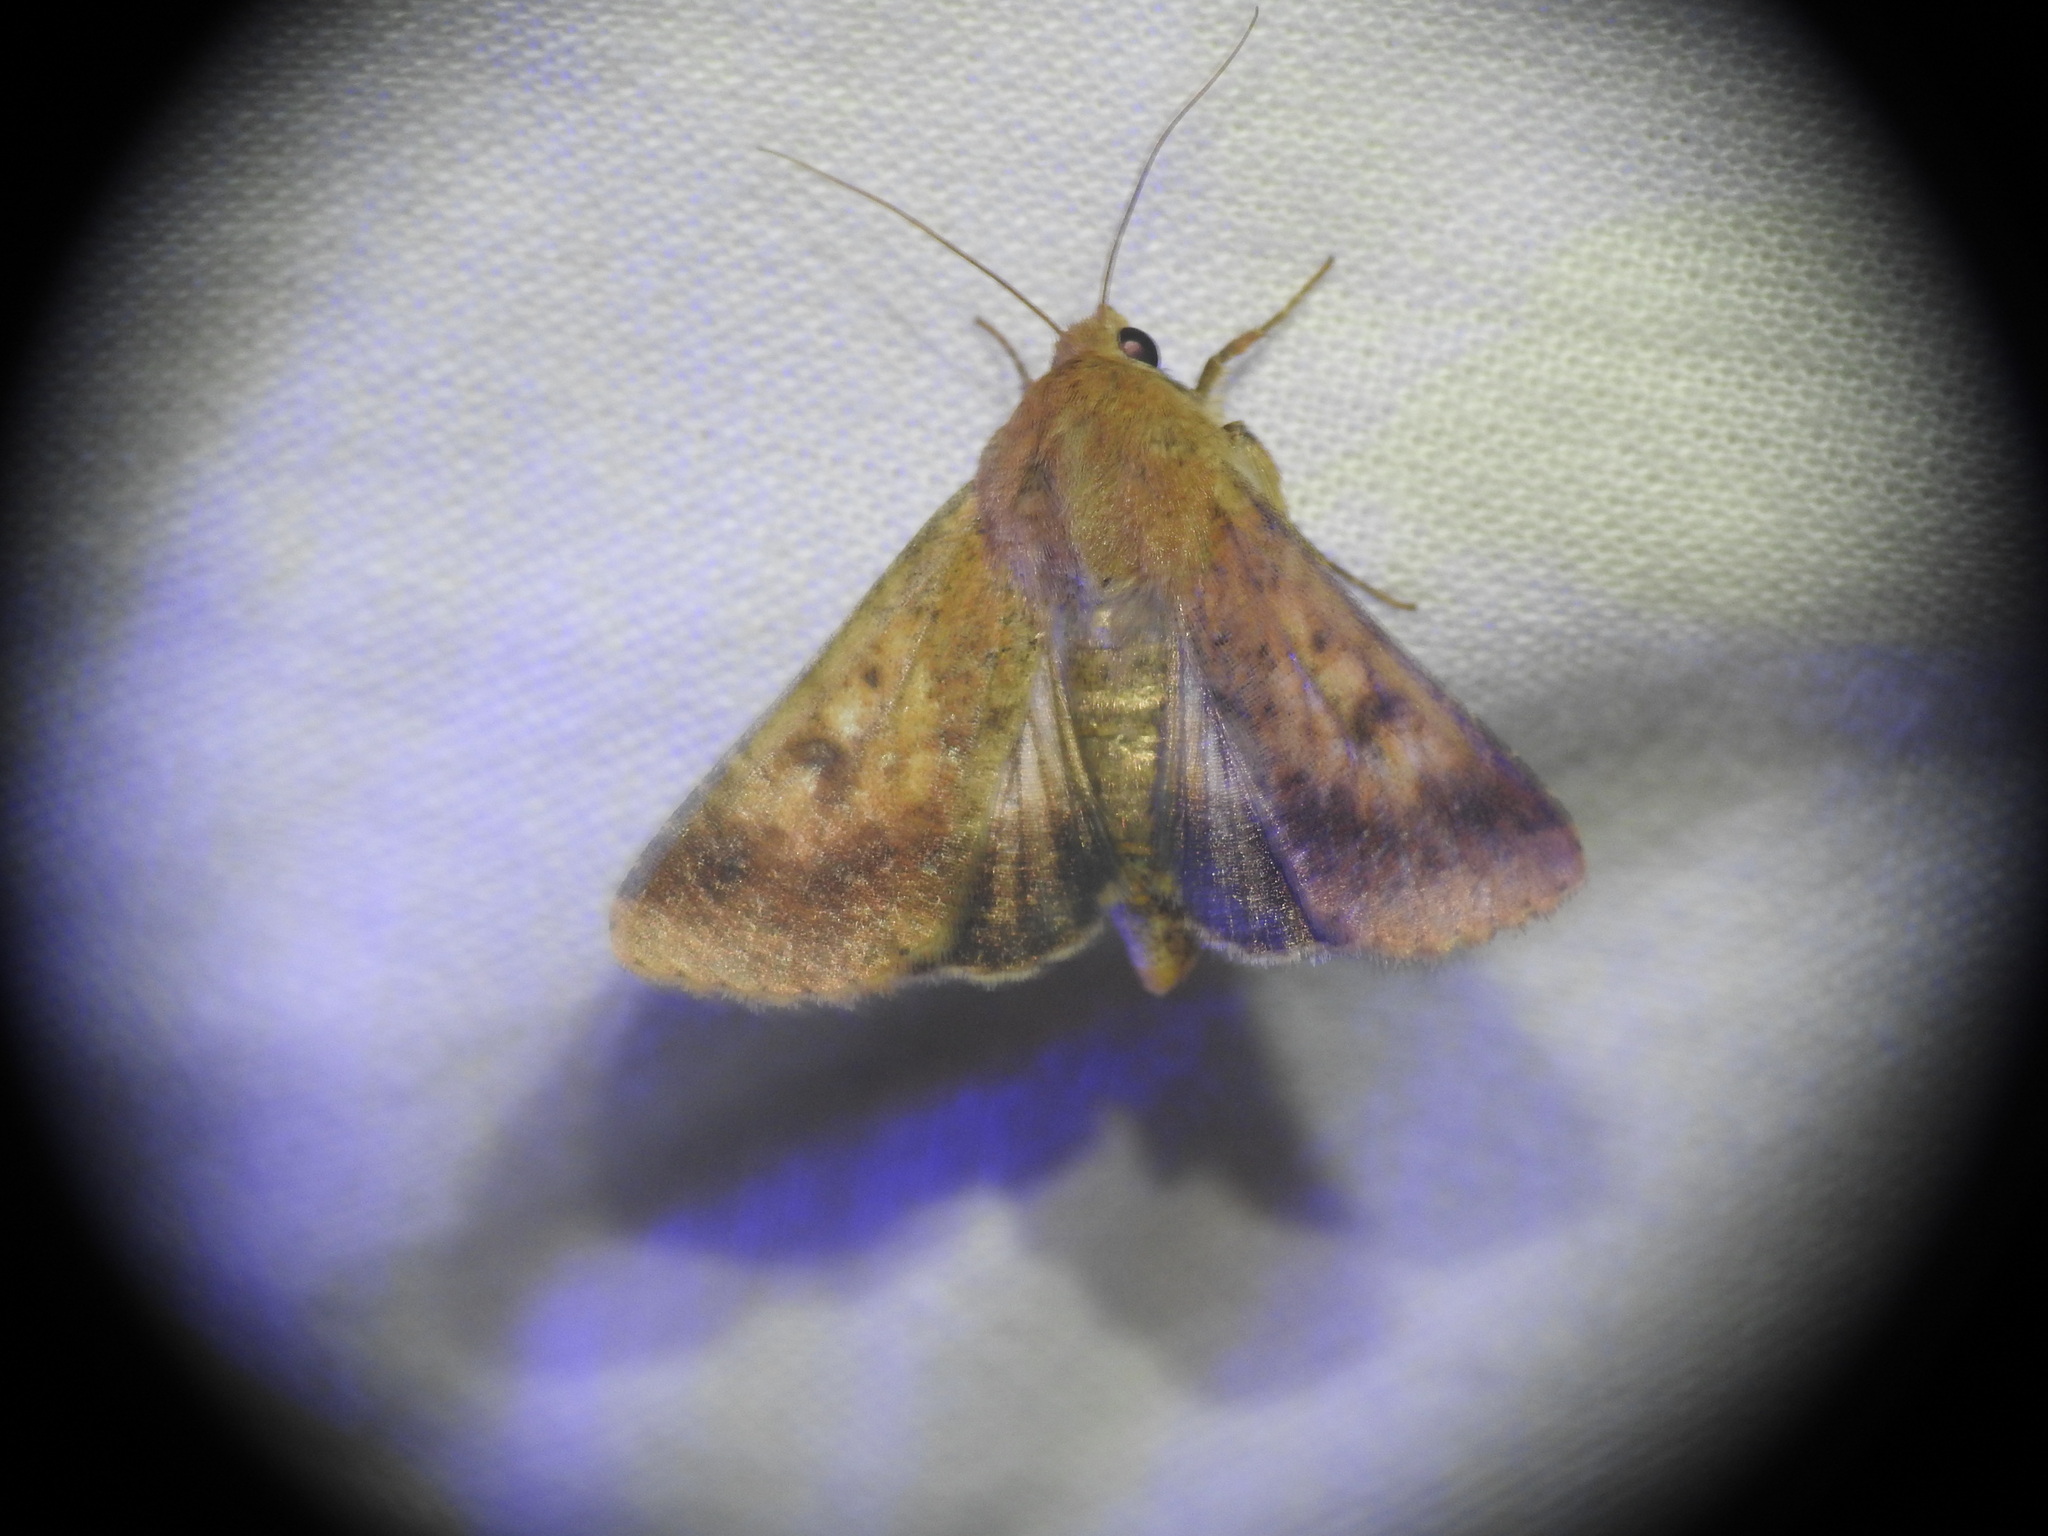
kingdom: Animalia
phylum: Arthropoda
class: Insecta
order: Lepidoptera
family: Noctuidae
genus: Helicoverpa
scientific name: Helicoverpa armigera
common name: Cotton bollworm
